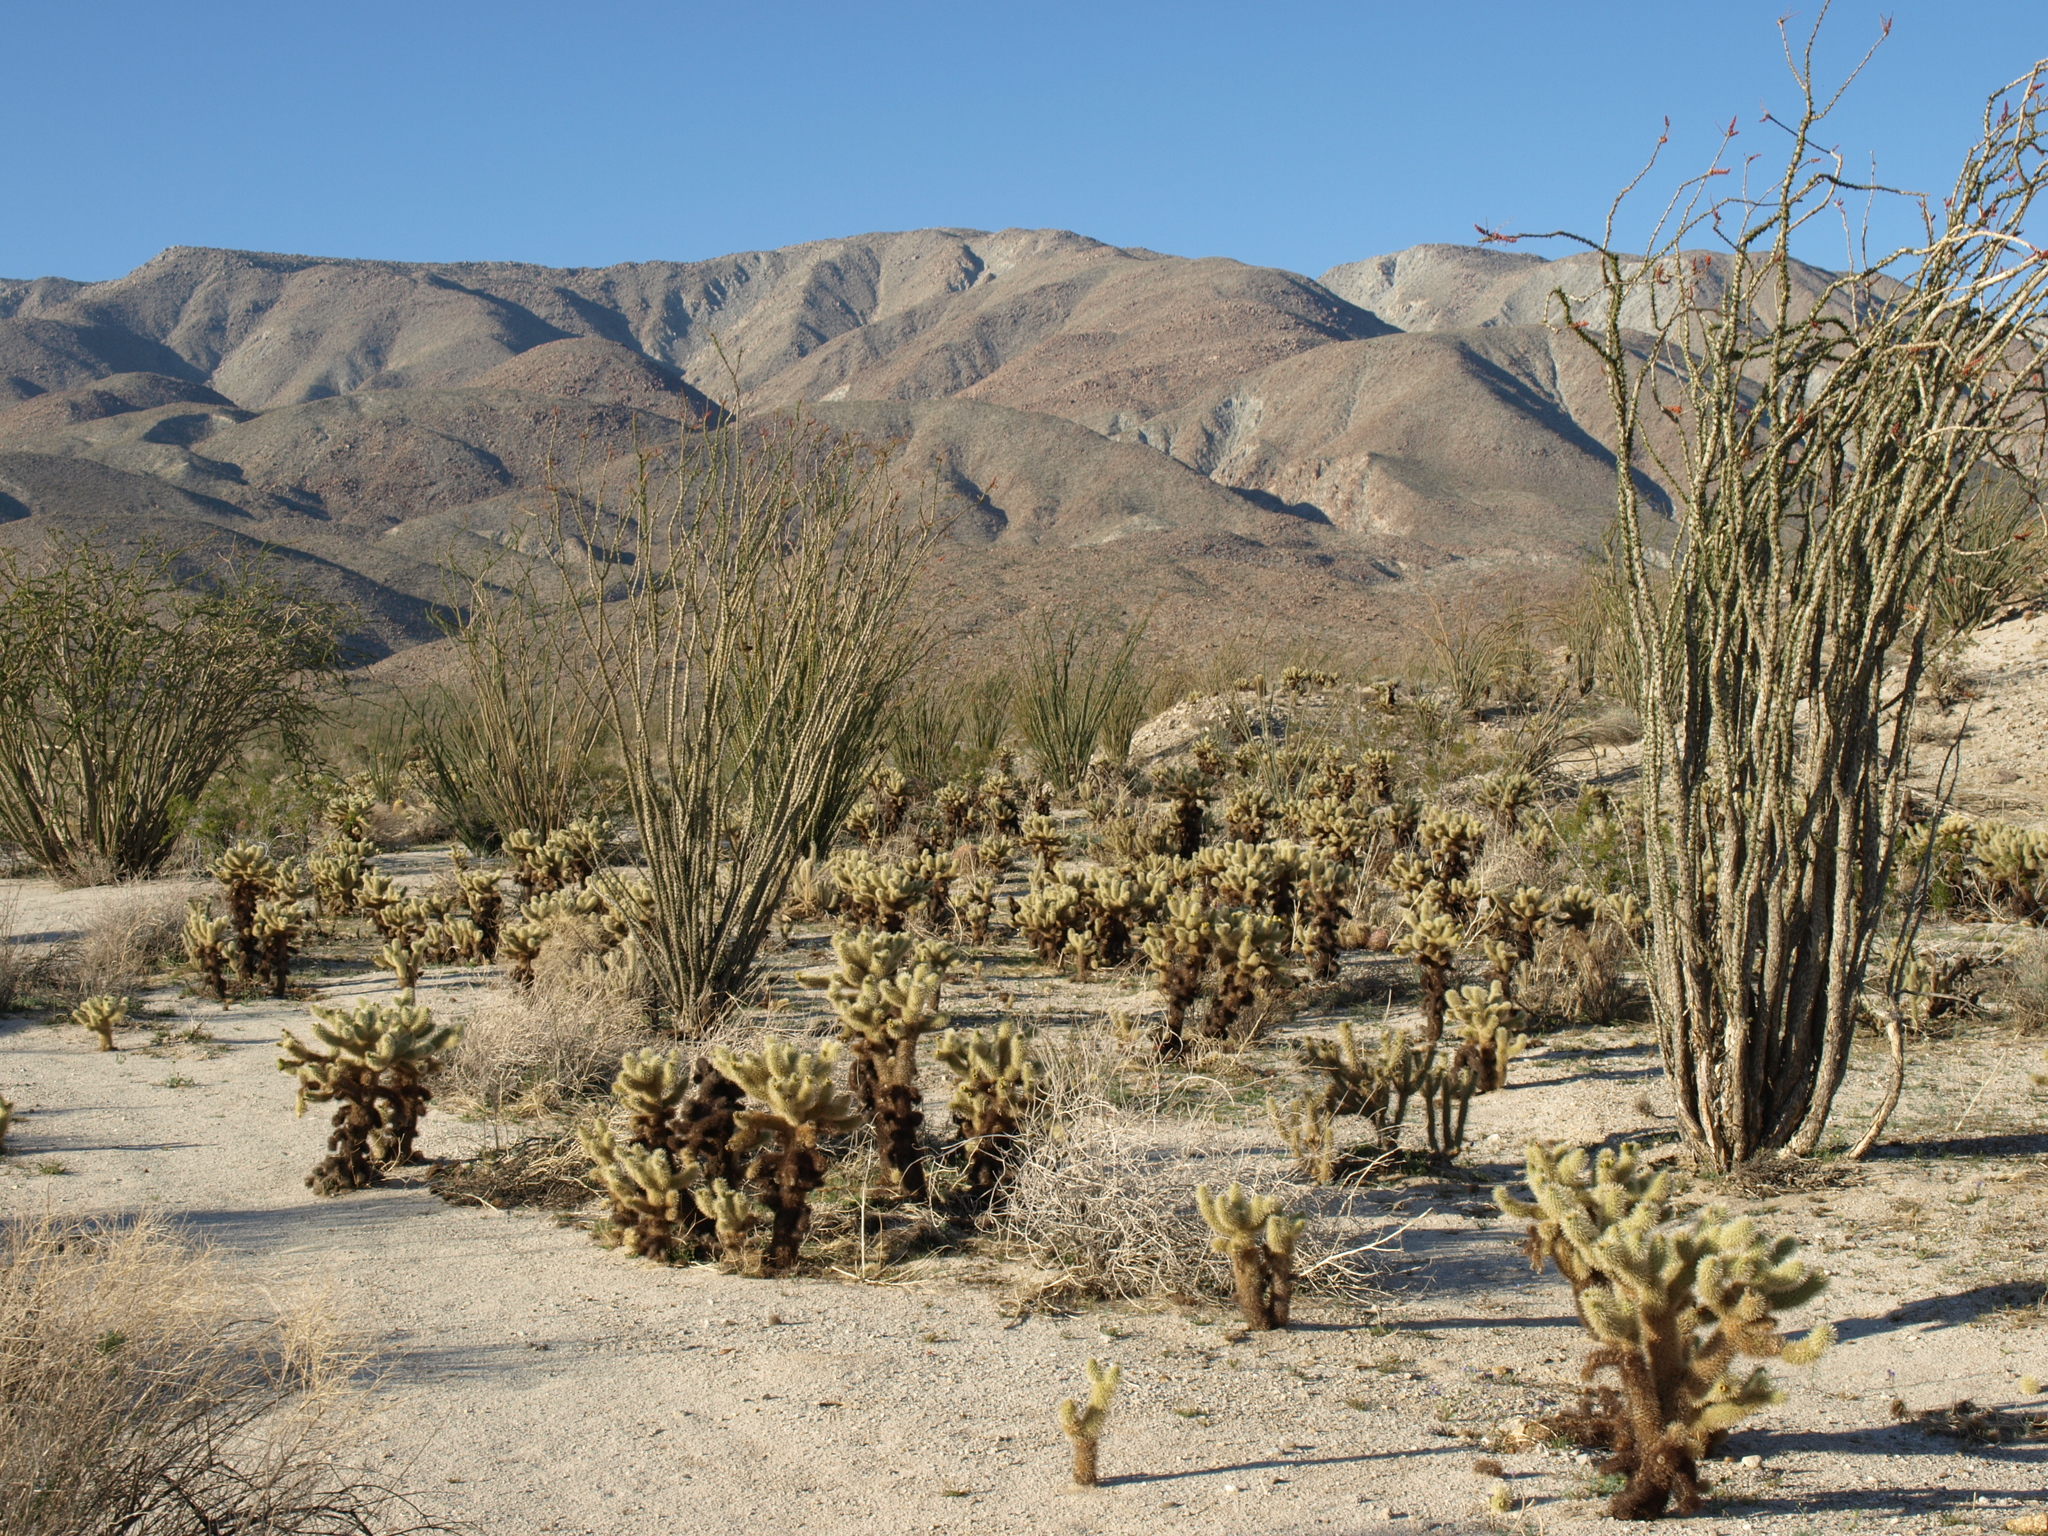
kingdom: Plantae
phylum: Tracheophyta
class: Magnoliopsida
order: Caryophyllales
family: Cactaceae
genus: Cylindropuntia
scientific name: Cylindropuntia fosbergii
